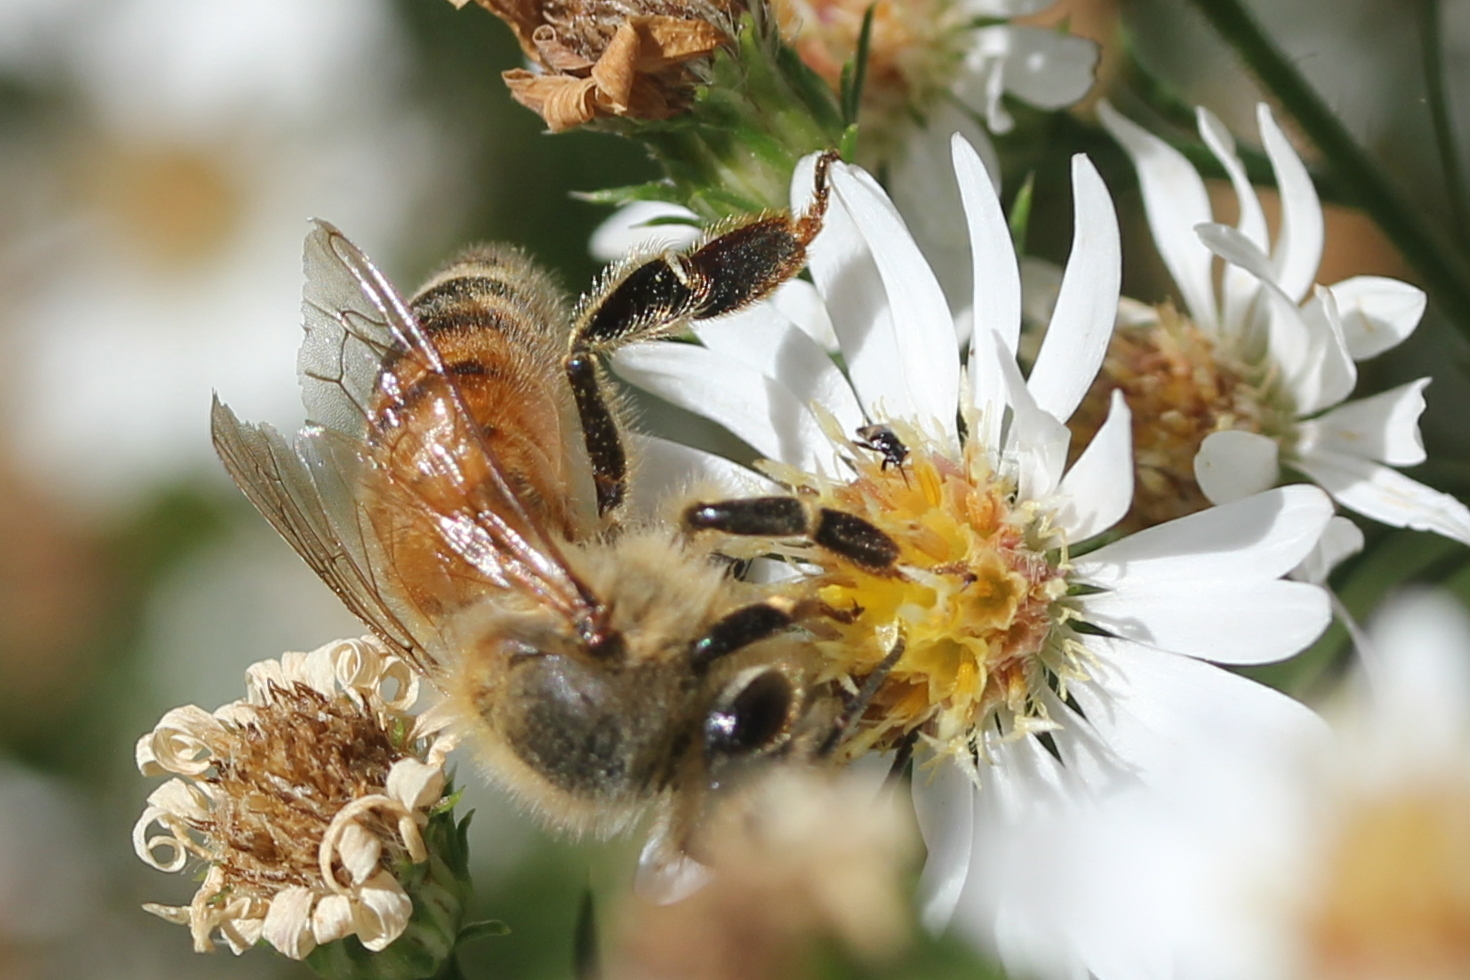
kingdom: Animalia
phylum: Arthropoda
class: Insecta
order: Hymenoptera
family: Apidae
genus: Apis
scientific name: Apis mellifera
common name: Honey bee
